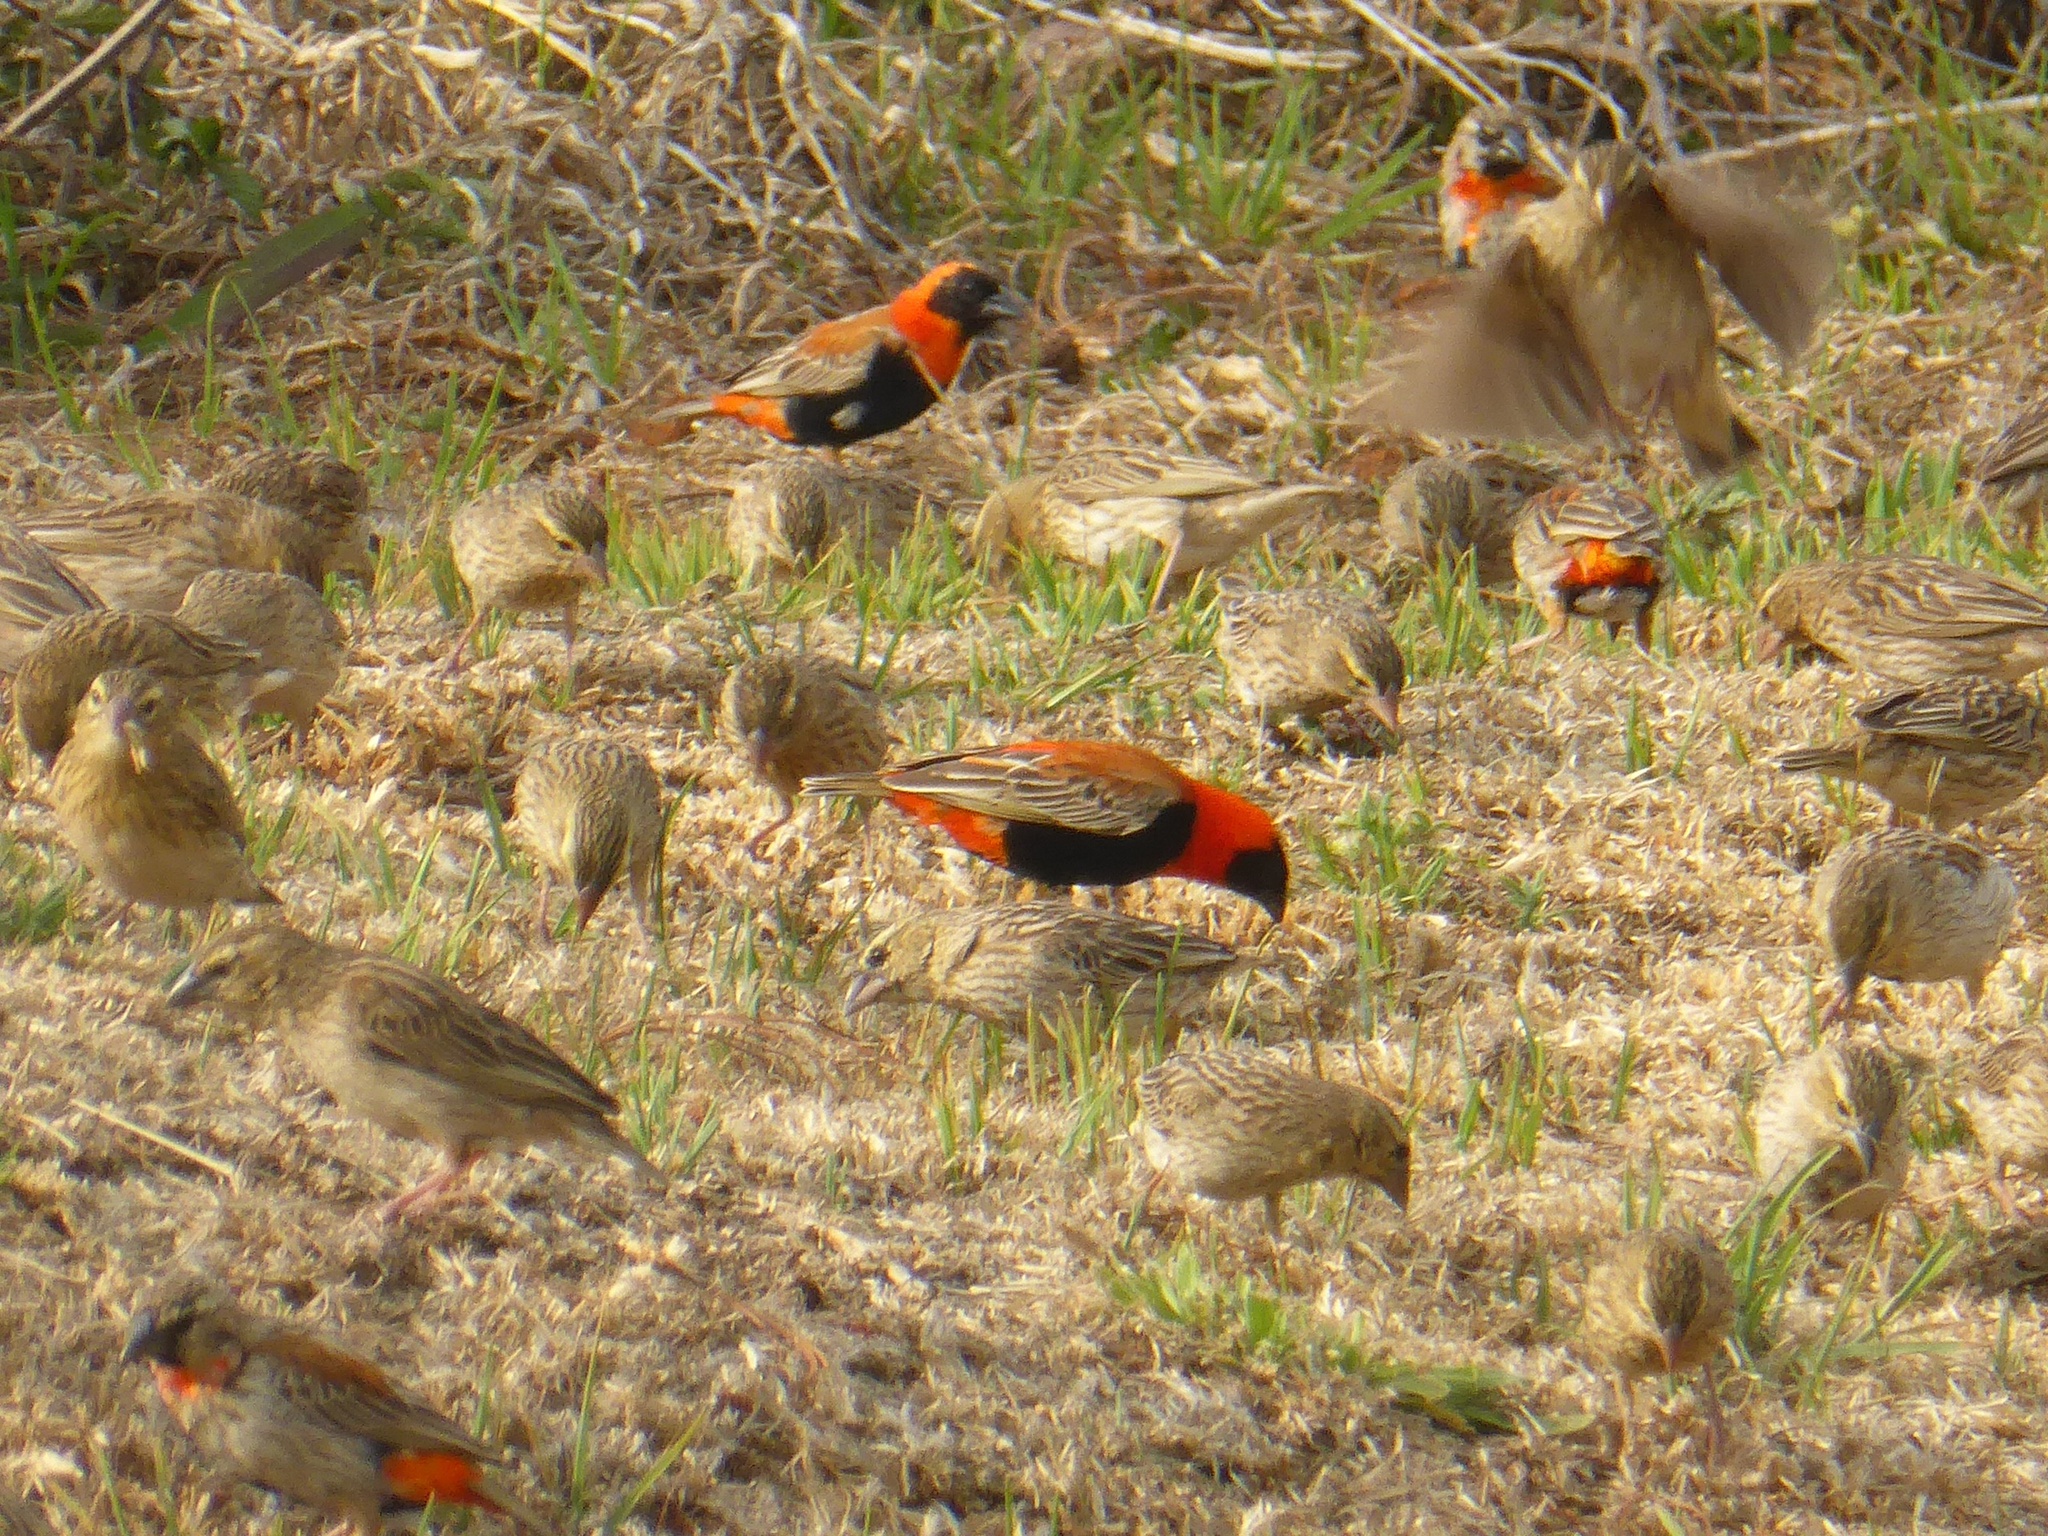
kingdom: Animalia
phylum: Chordata
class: Aves
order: Passeriformes
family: Ploceidae
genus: Euplectes
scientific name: Euplectes orix
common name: Southern red bishop
